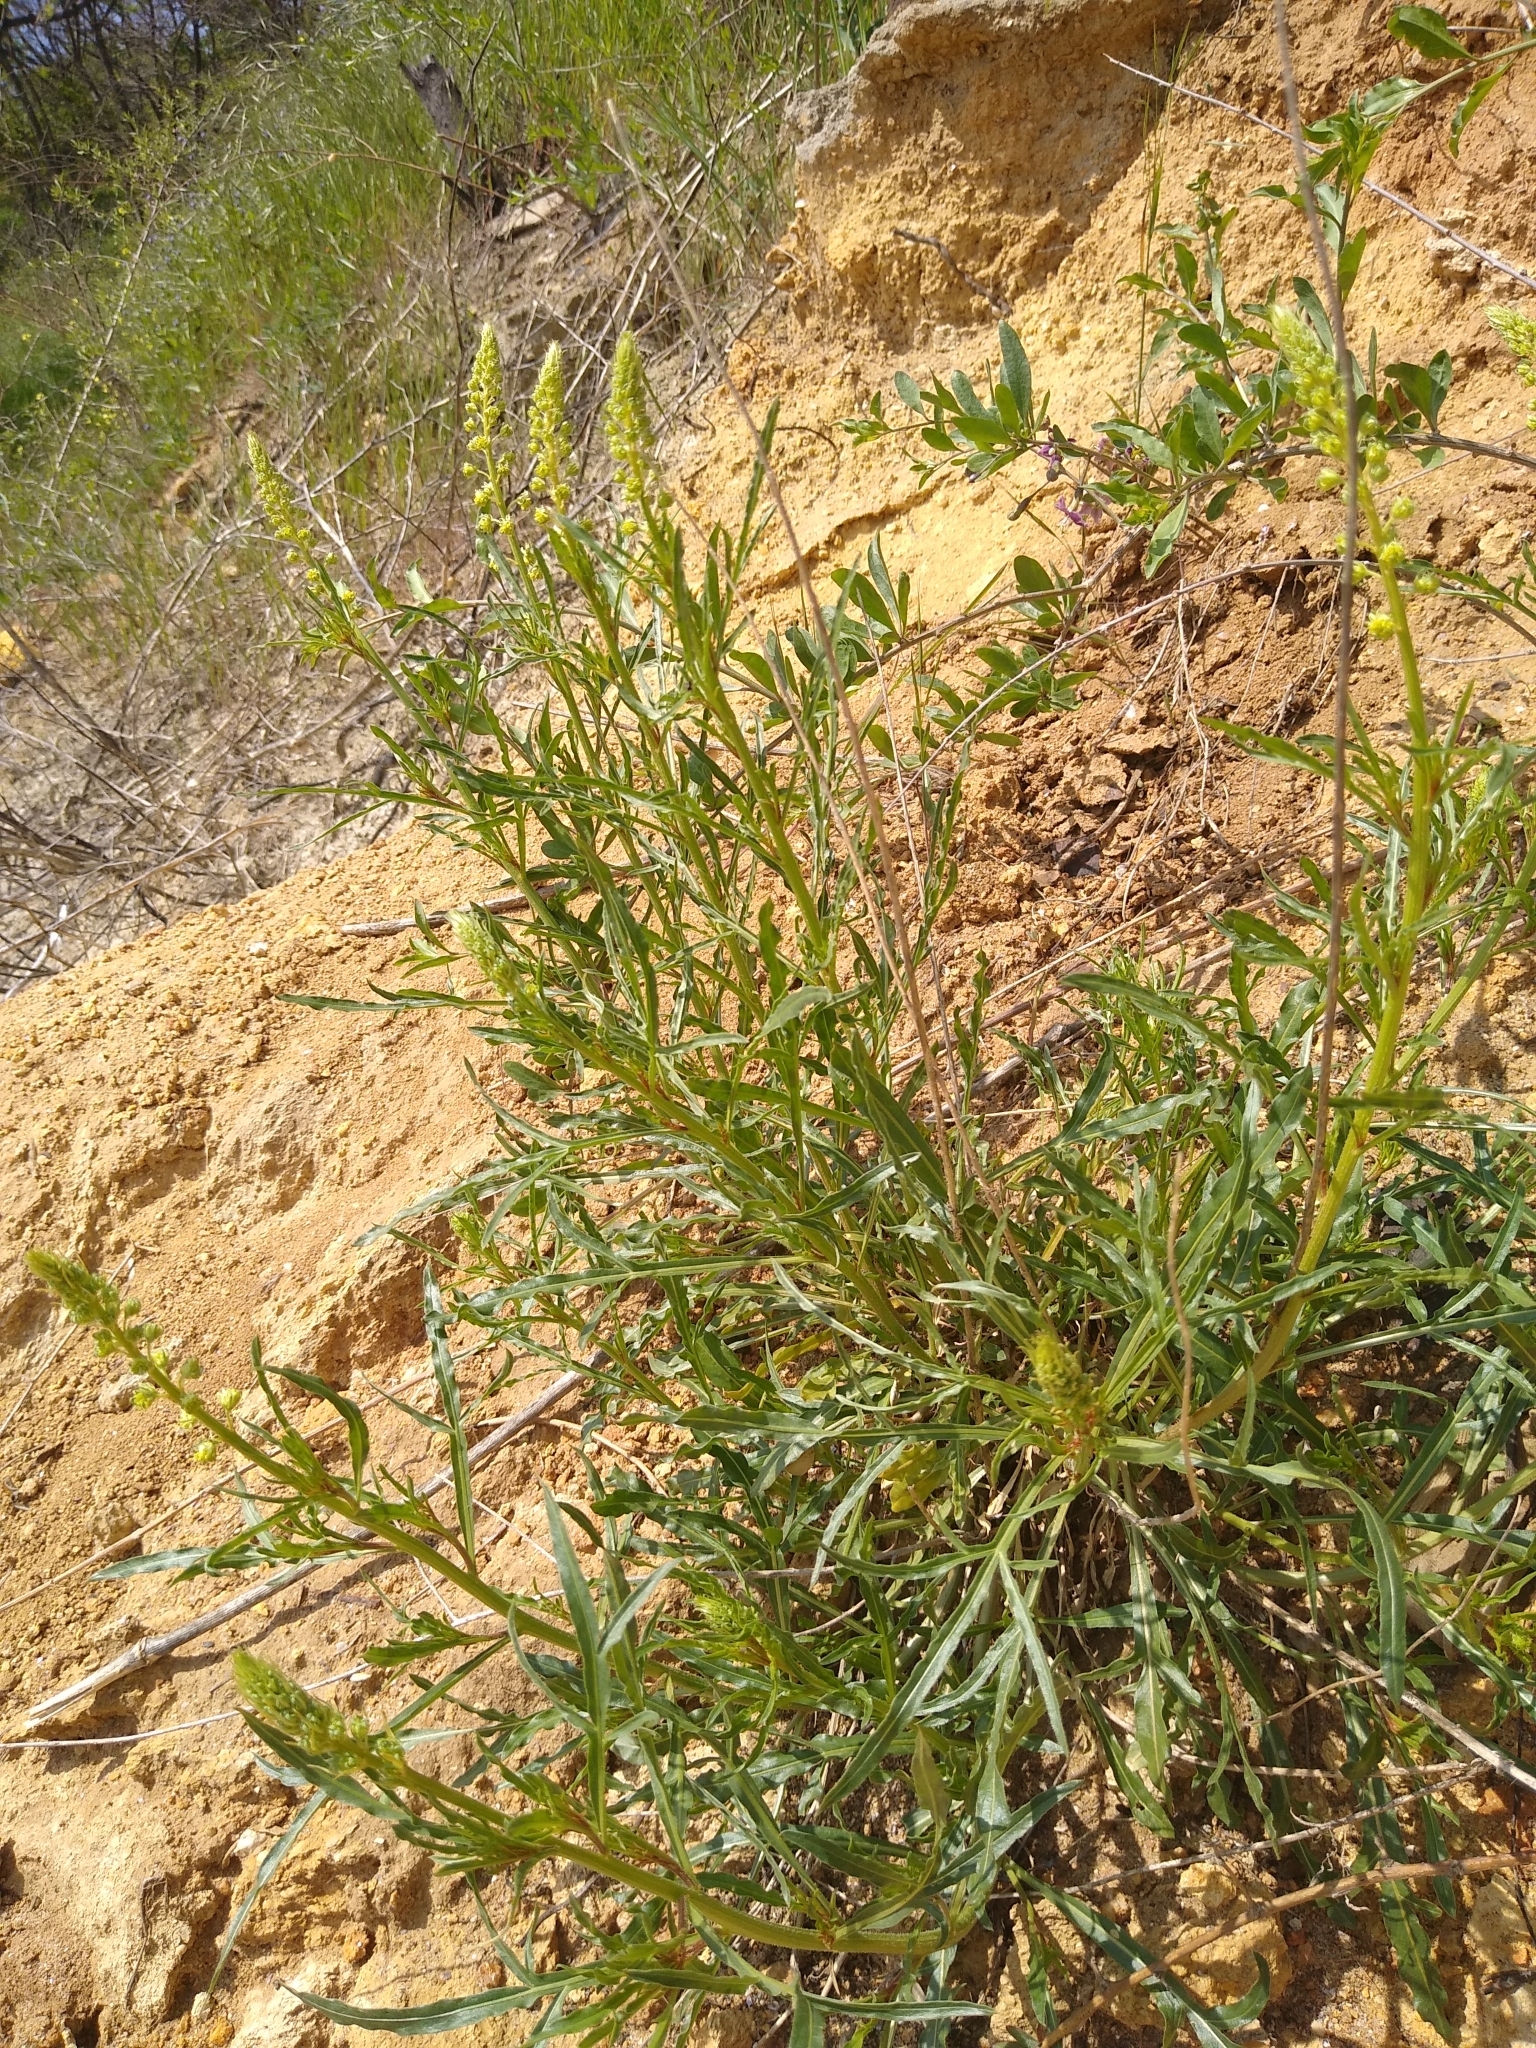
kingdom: Plantae
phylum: Tracheophyta
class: Magnoliopsida
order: Brassicales
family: Resedaceae
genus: Reseda
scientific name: Reseda lutea
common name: Wild mignonette
